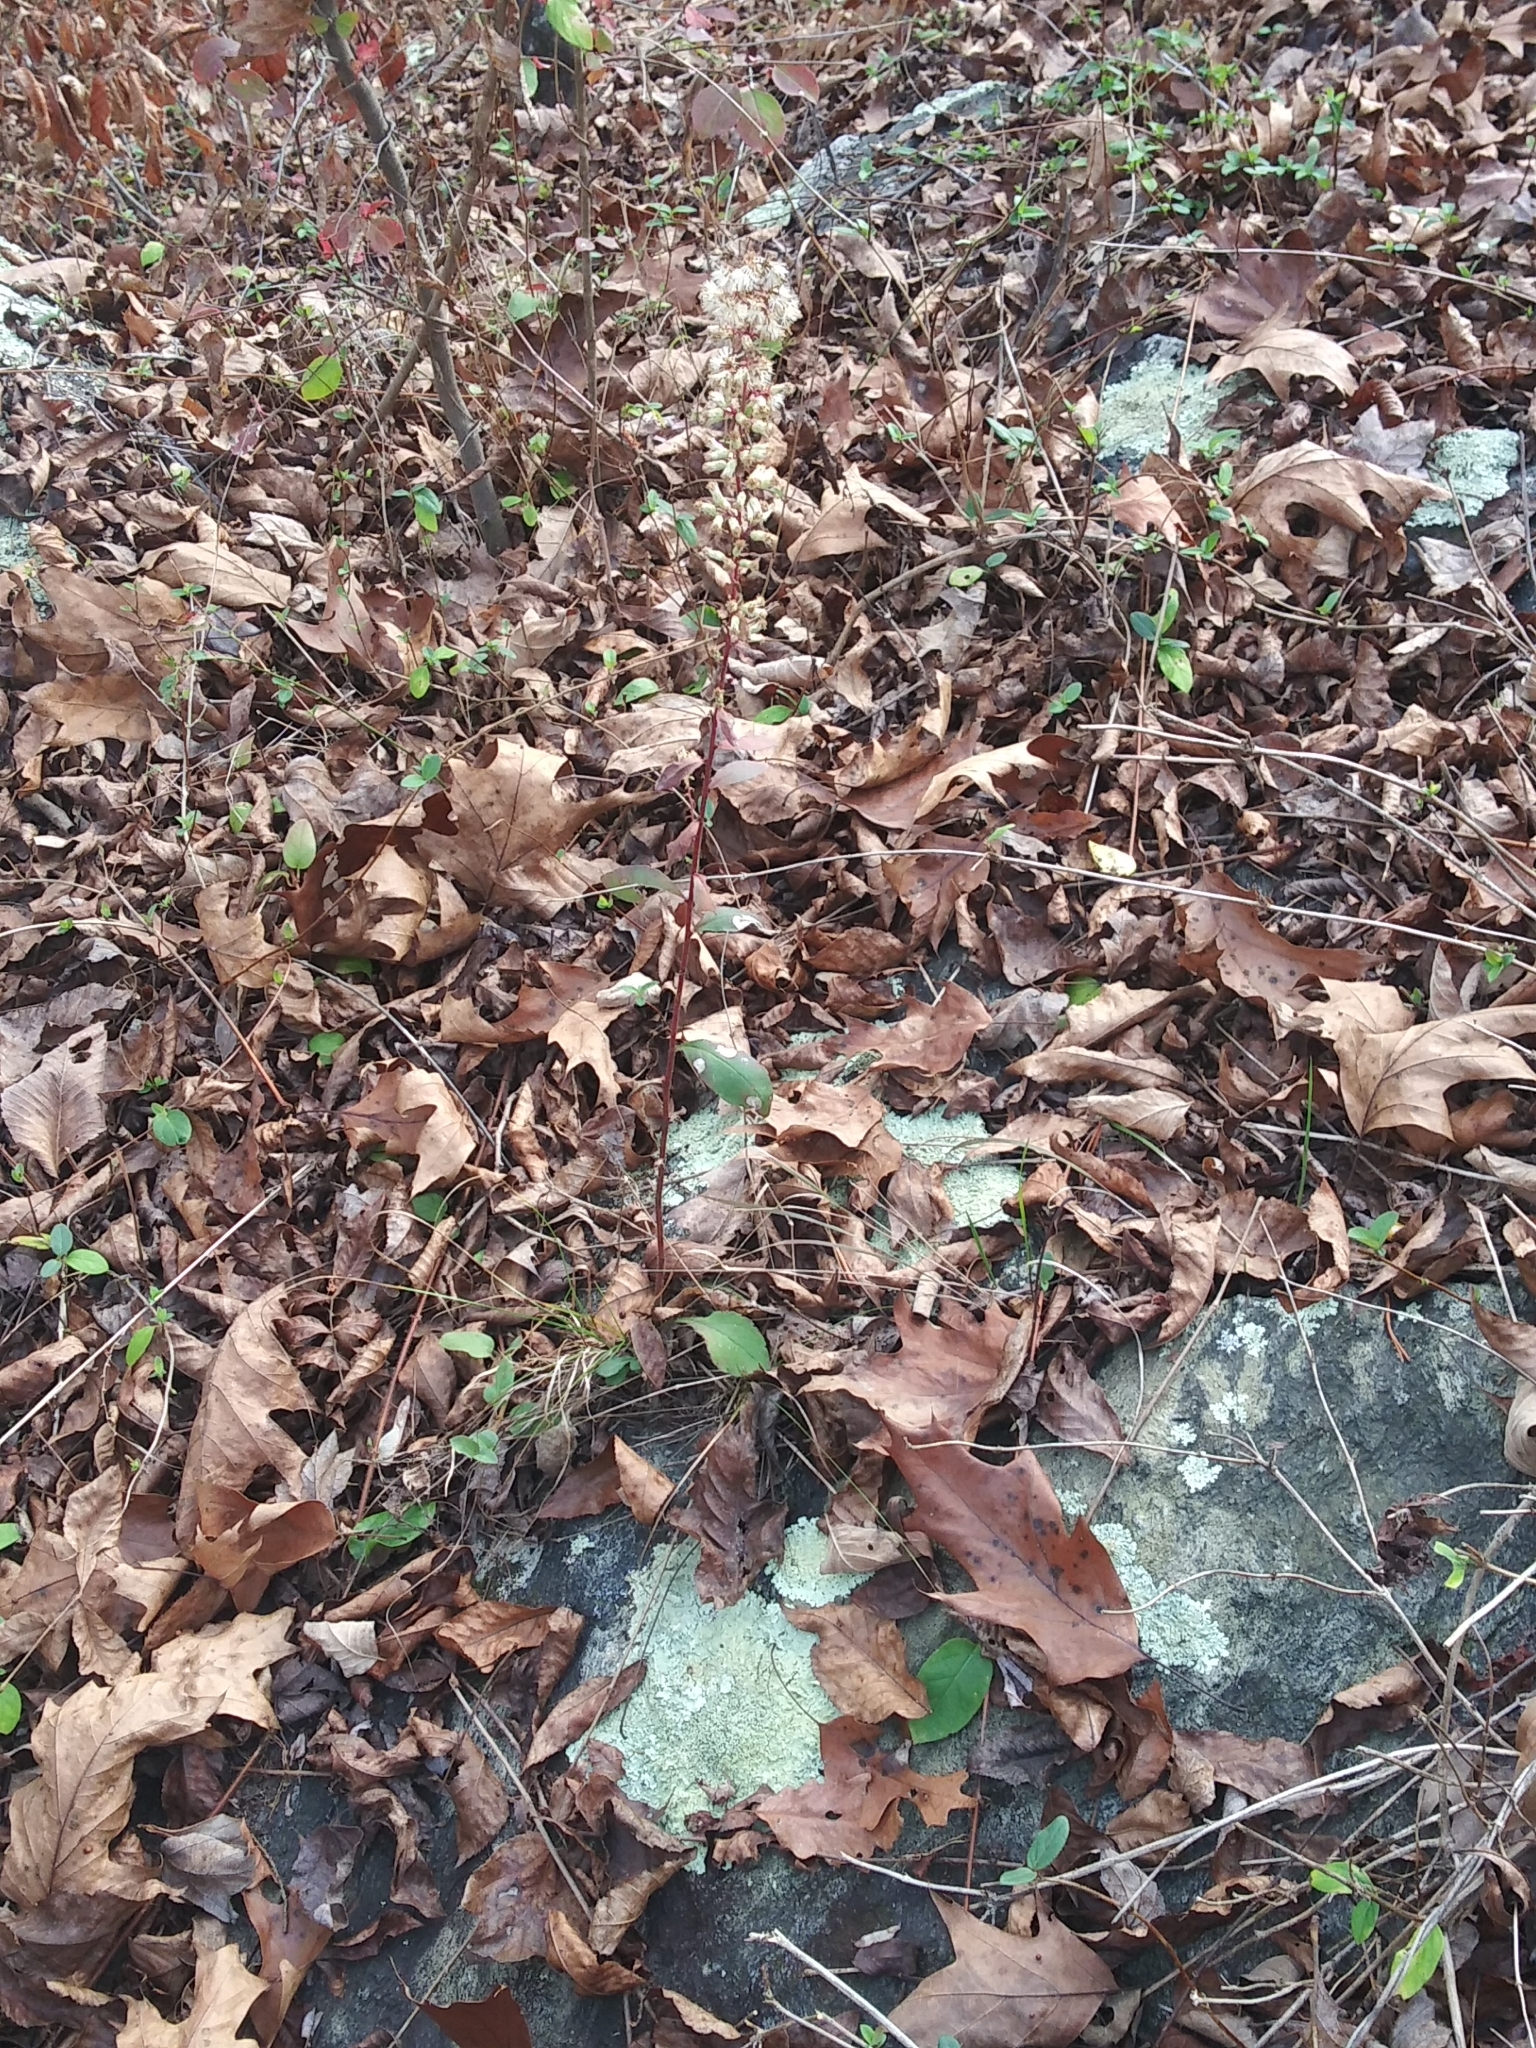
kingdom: Plantae
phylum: Tracheophyta
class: Magnoliopsida
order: Asterales
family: Asteraceae
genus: Solidago
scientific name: Solidago caesia
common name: Woodland goldenrod
